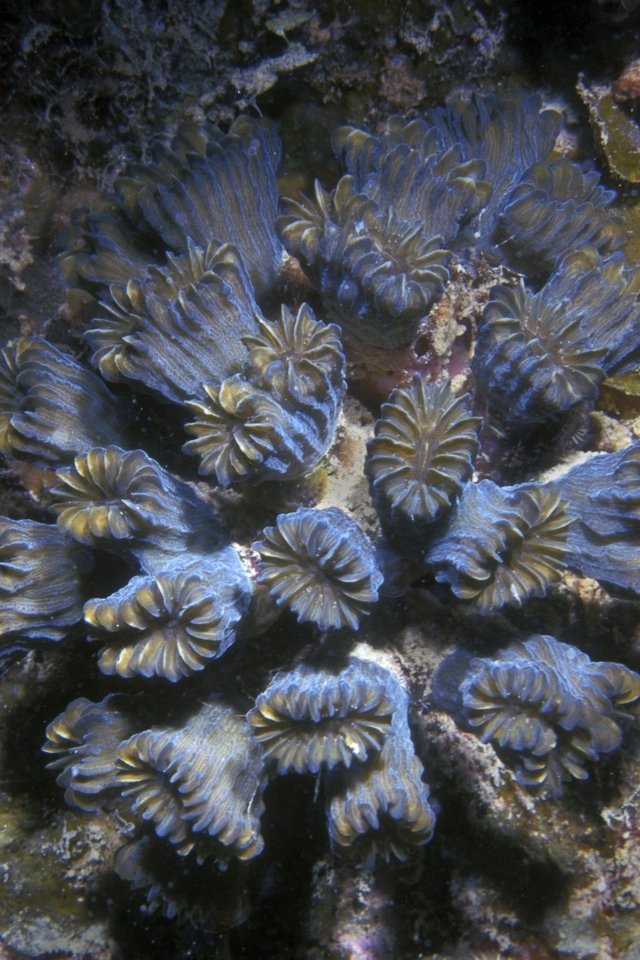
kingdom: Animalia
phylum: Cnidaria
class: Anthozoa
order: Scleractinia
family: Meandrinidae
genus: Eusmilia
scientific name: Eusmilia fastigiata
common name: Smooth flower coral
